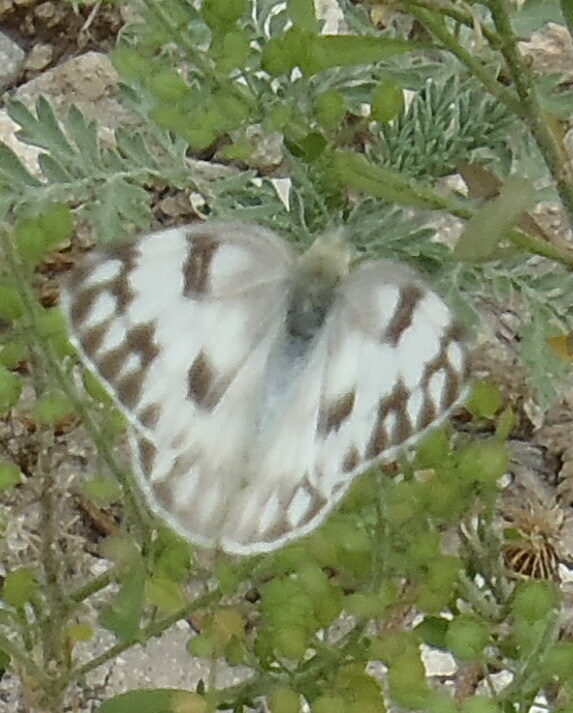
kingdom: Animalia
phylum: Arthropoda
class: Insecta
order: Lepidoptera
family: Pieridae
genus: Pontia
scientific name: Pontia protodice
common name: Checkered white
